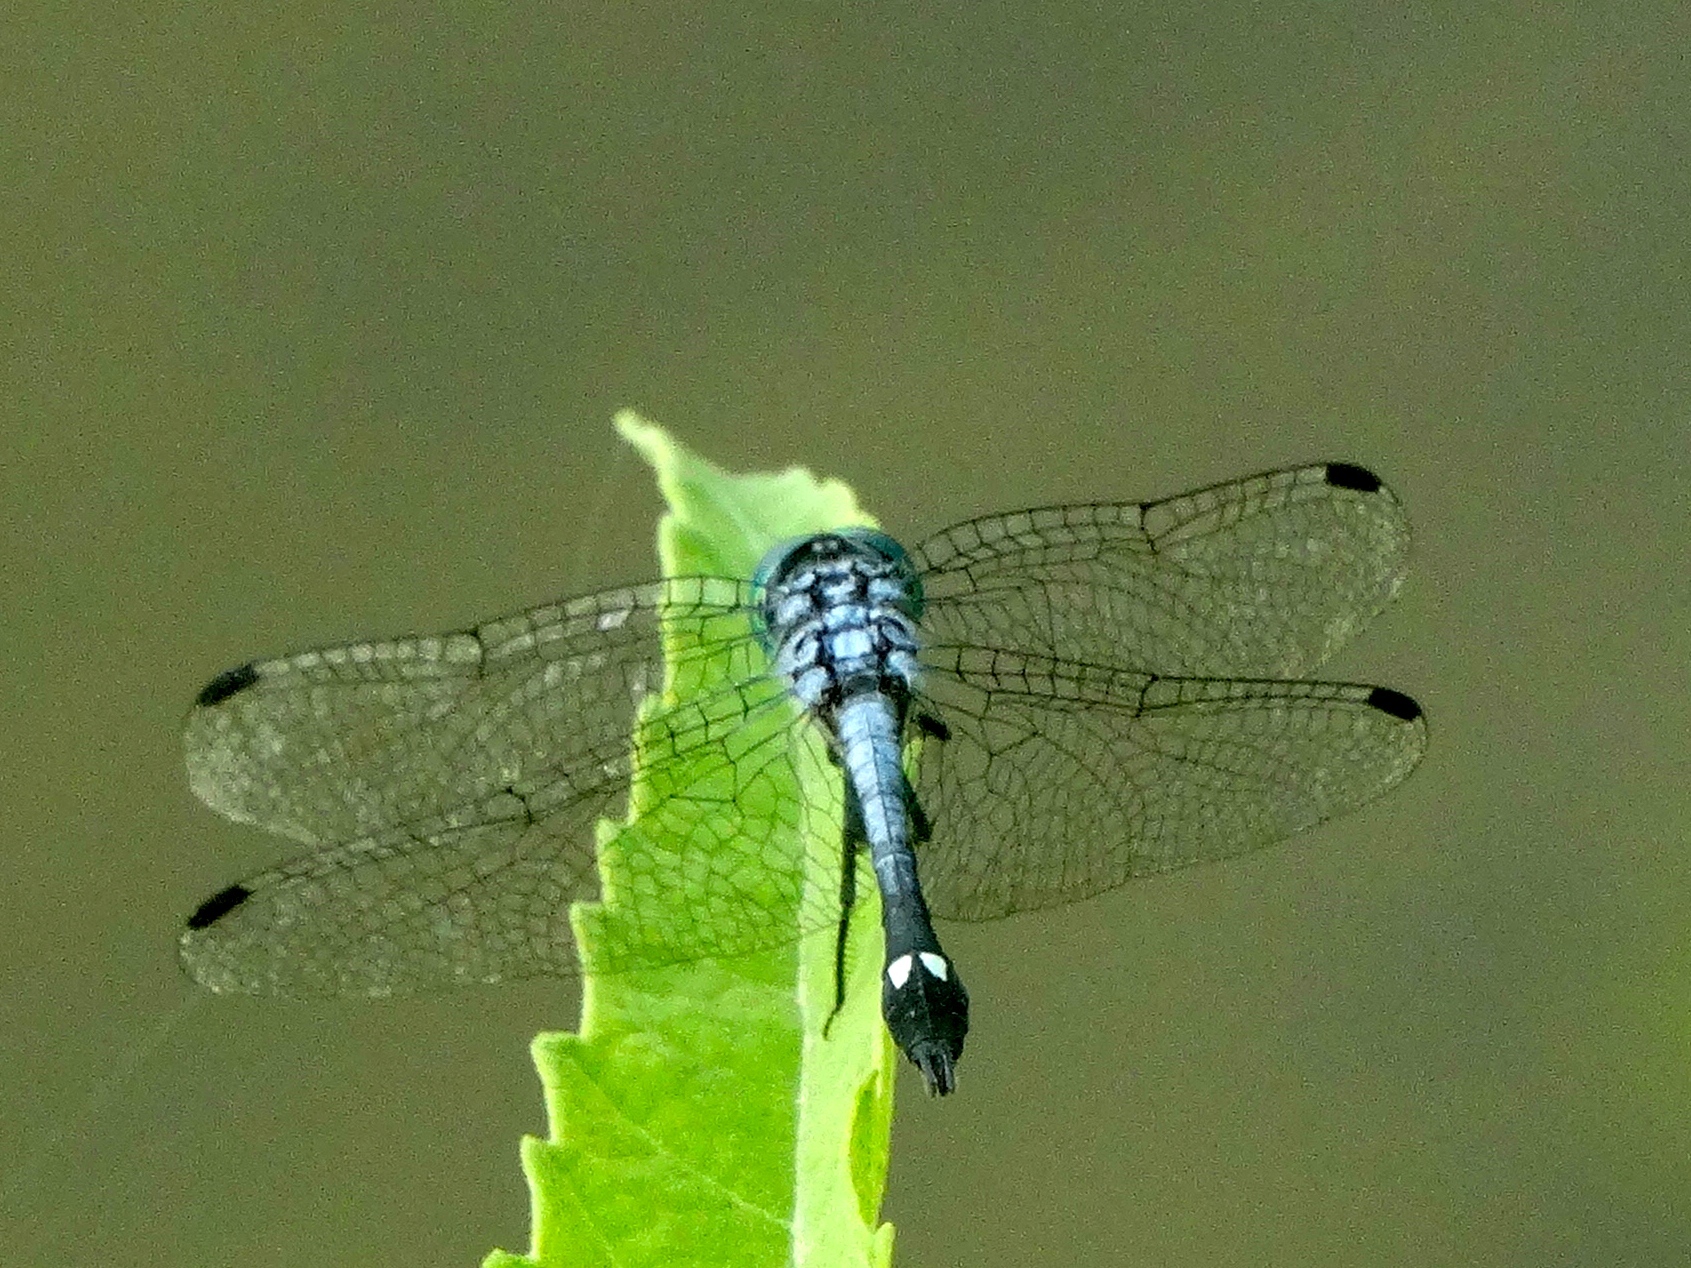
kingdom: Animalia
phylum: Arthropoda
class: Insecta
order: Odonata
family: Libellulidae
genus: Micrathyria
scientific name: Micrathyria aequalis
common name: Spot-tailed dasher
